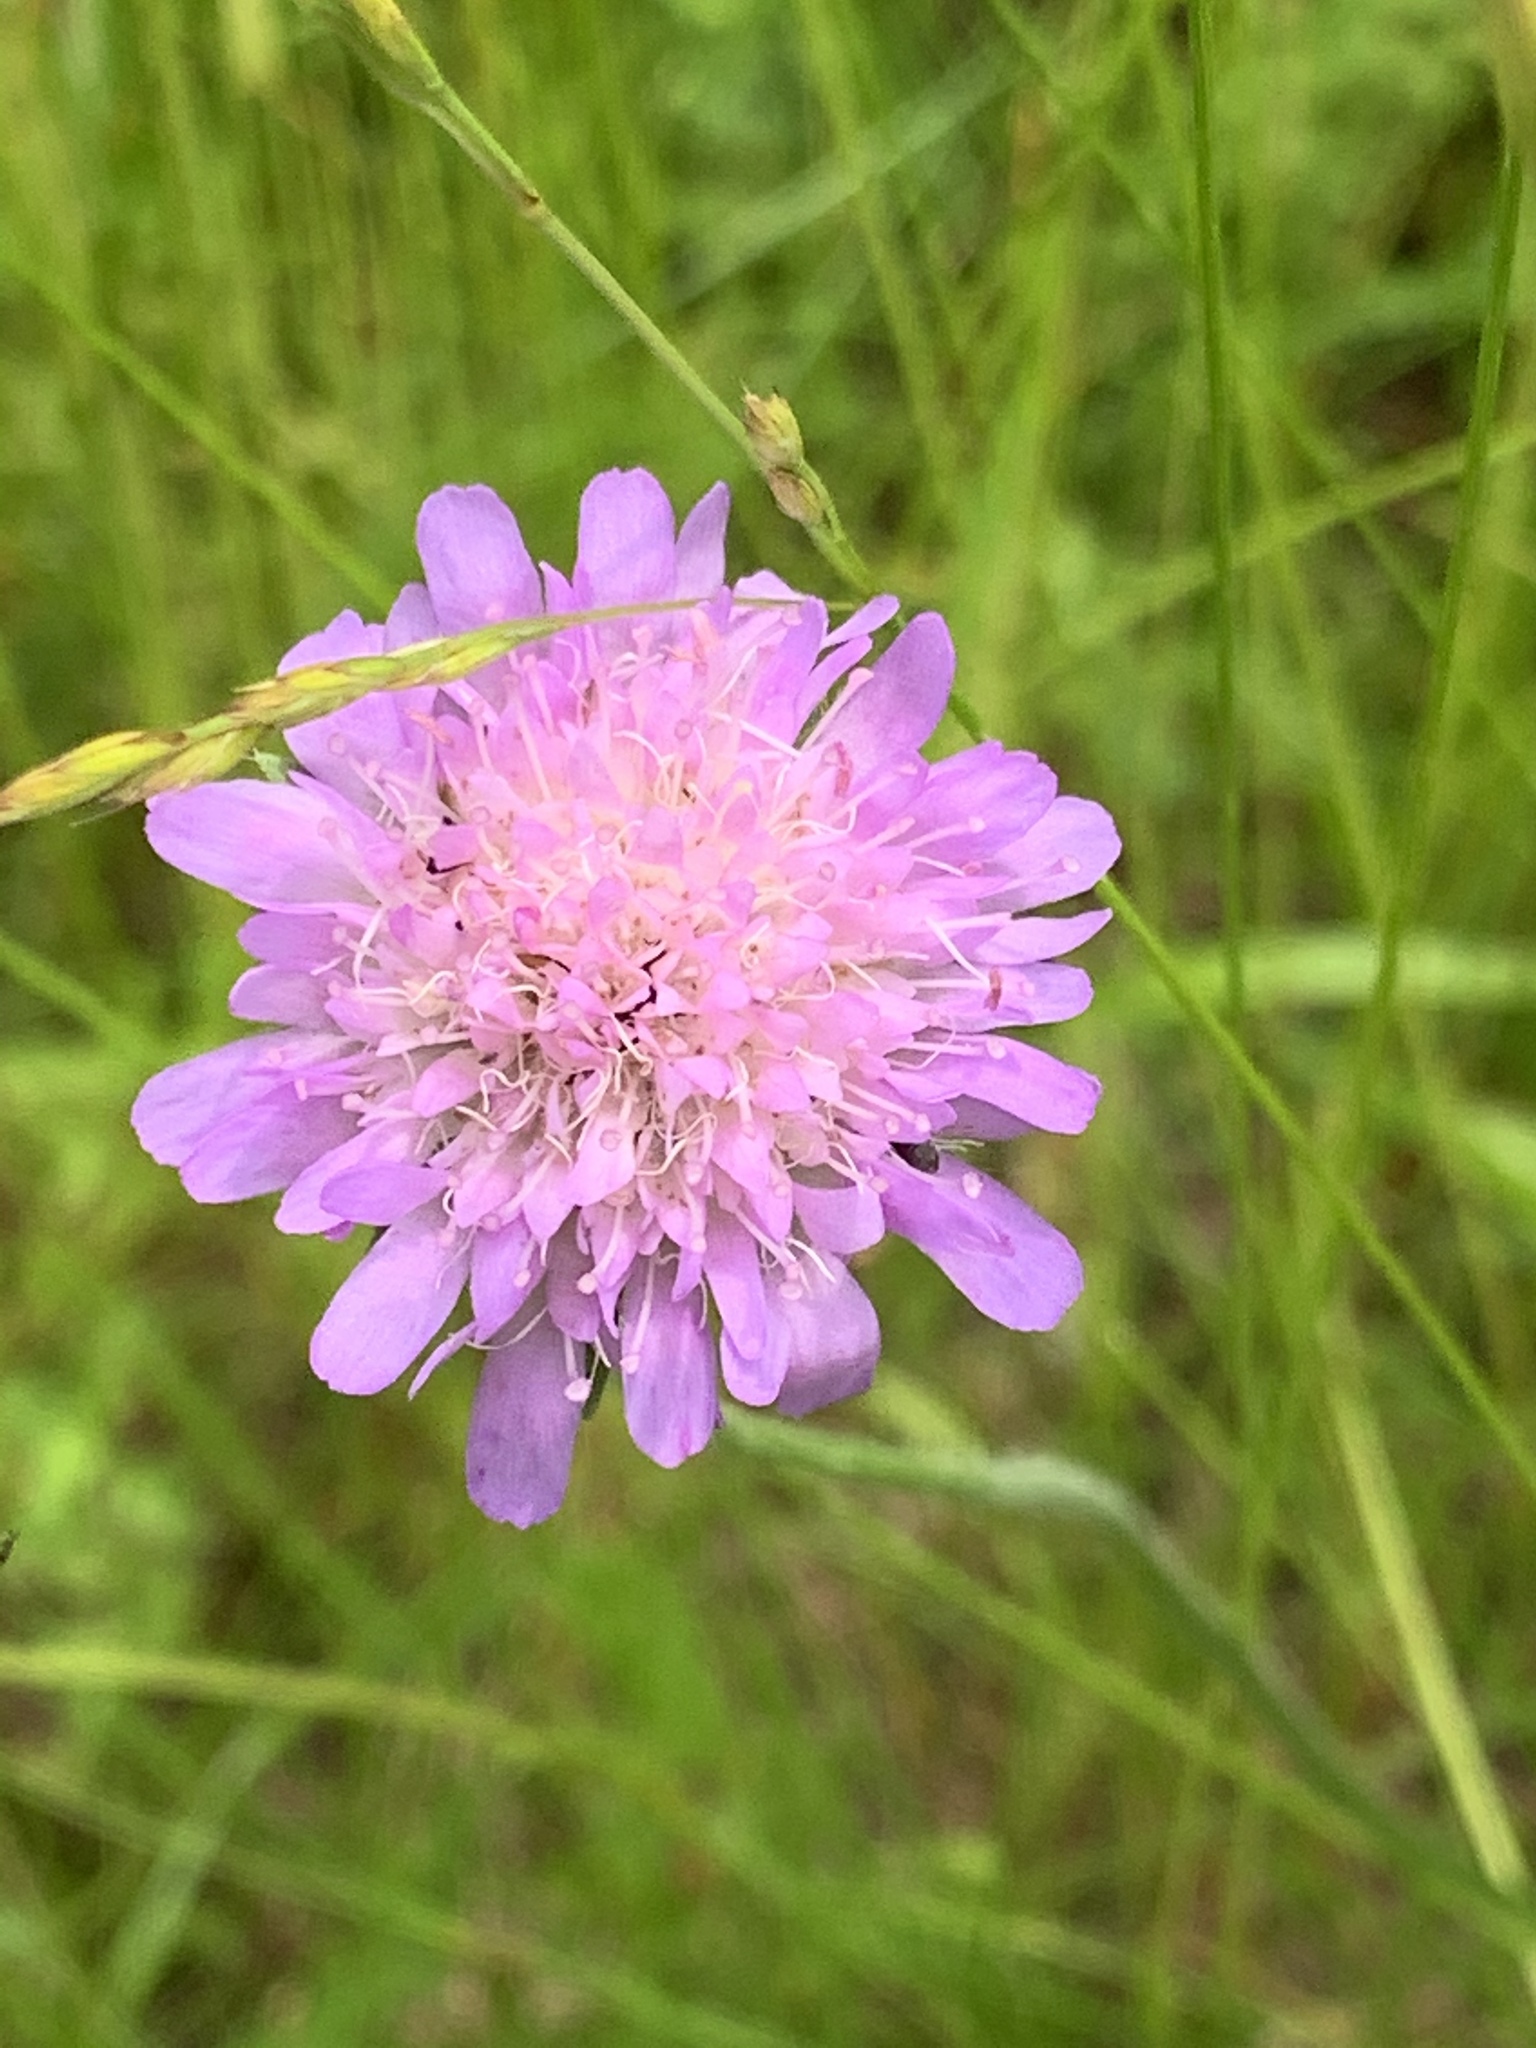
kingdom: Plantae
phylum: Tracheophyta
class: Magnoliopsida
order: Dipsacales
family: Caprifoliaceae
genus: Knautia
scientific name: Knautia arvensis
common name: Field scabiosa
